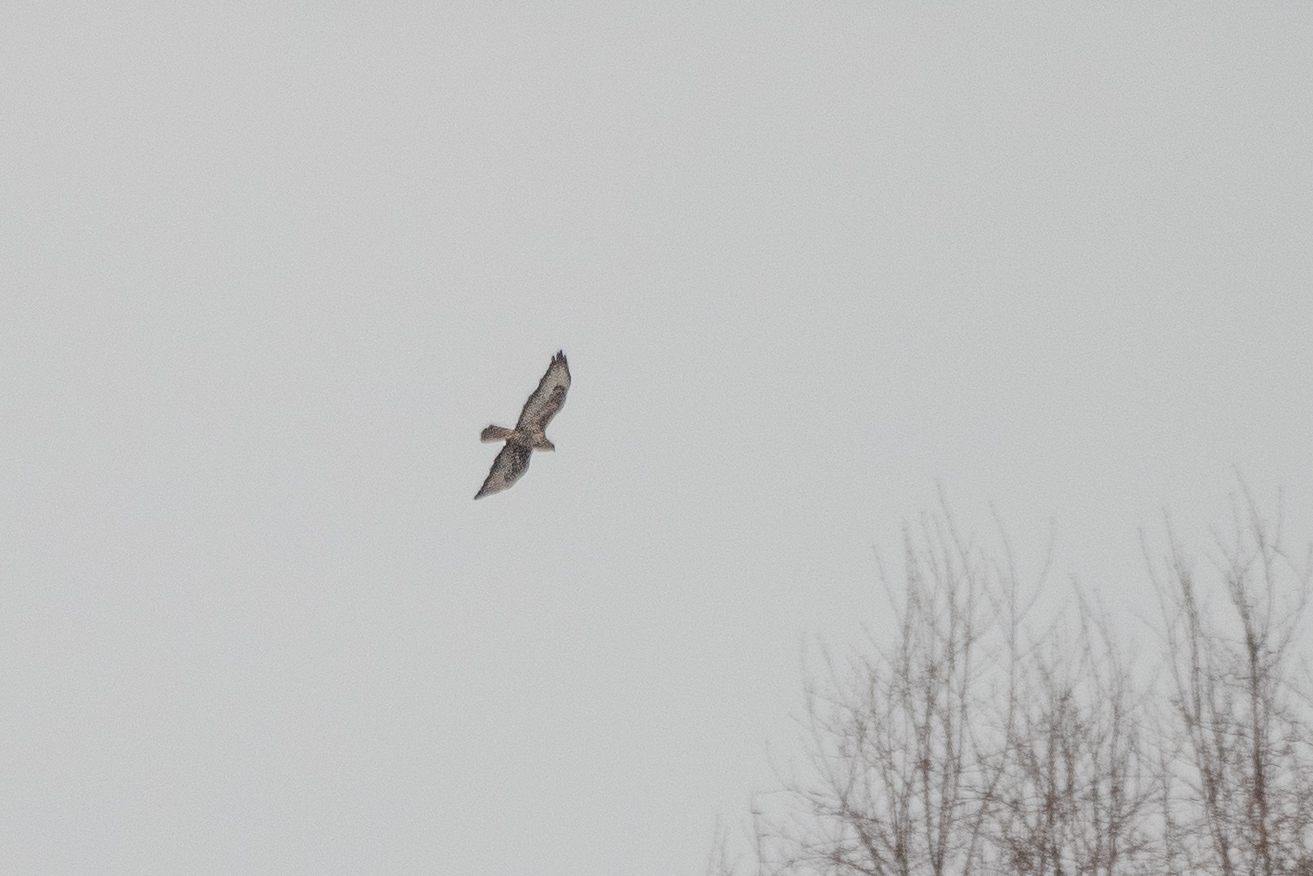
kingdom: Animalia
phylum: Chordata
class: Aves
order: Accipitriformes
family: Accipitridae
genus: Buteo
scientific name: Buteo buteo
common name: Common buzzard
